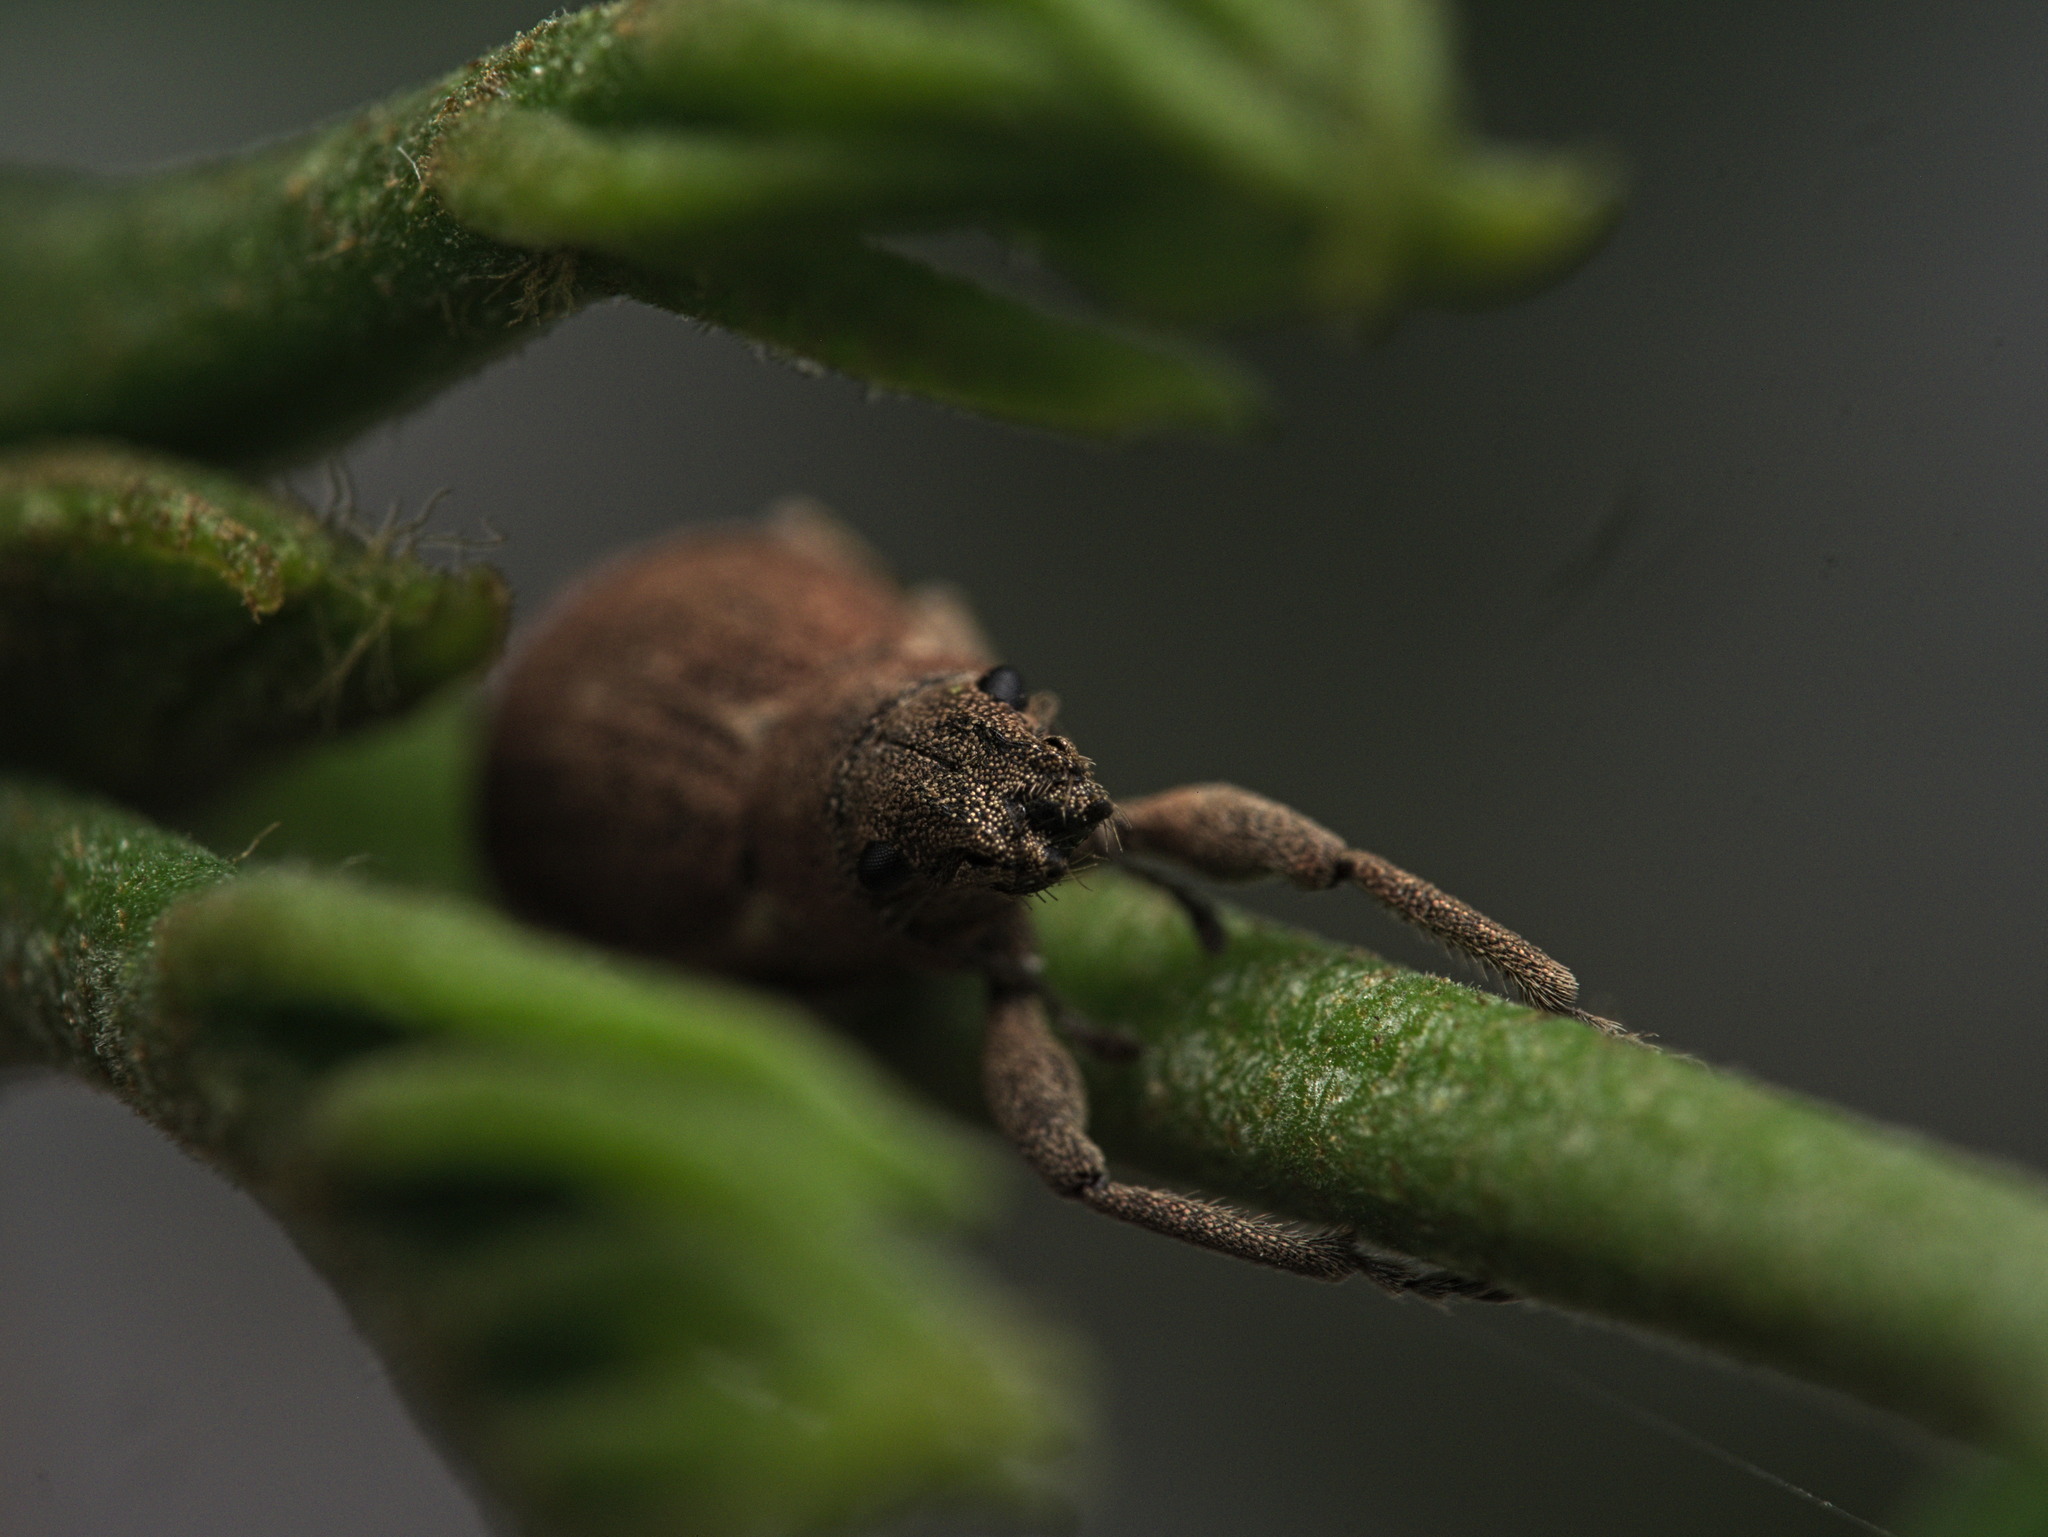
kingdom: Animalia
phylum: Arthropoda
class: Insecta
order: Coleoptera
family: Curculionidae
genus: Naupactus
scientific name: Naupactus cervinus
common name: Fuller rose beetle
